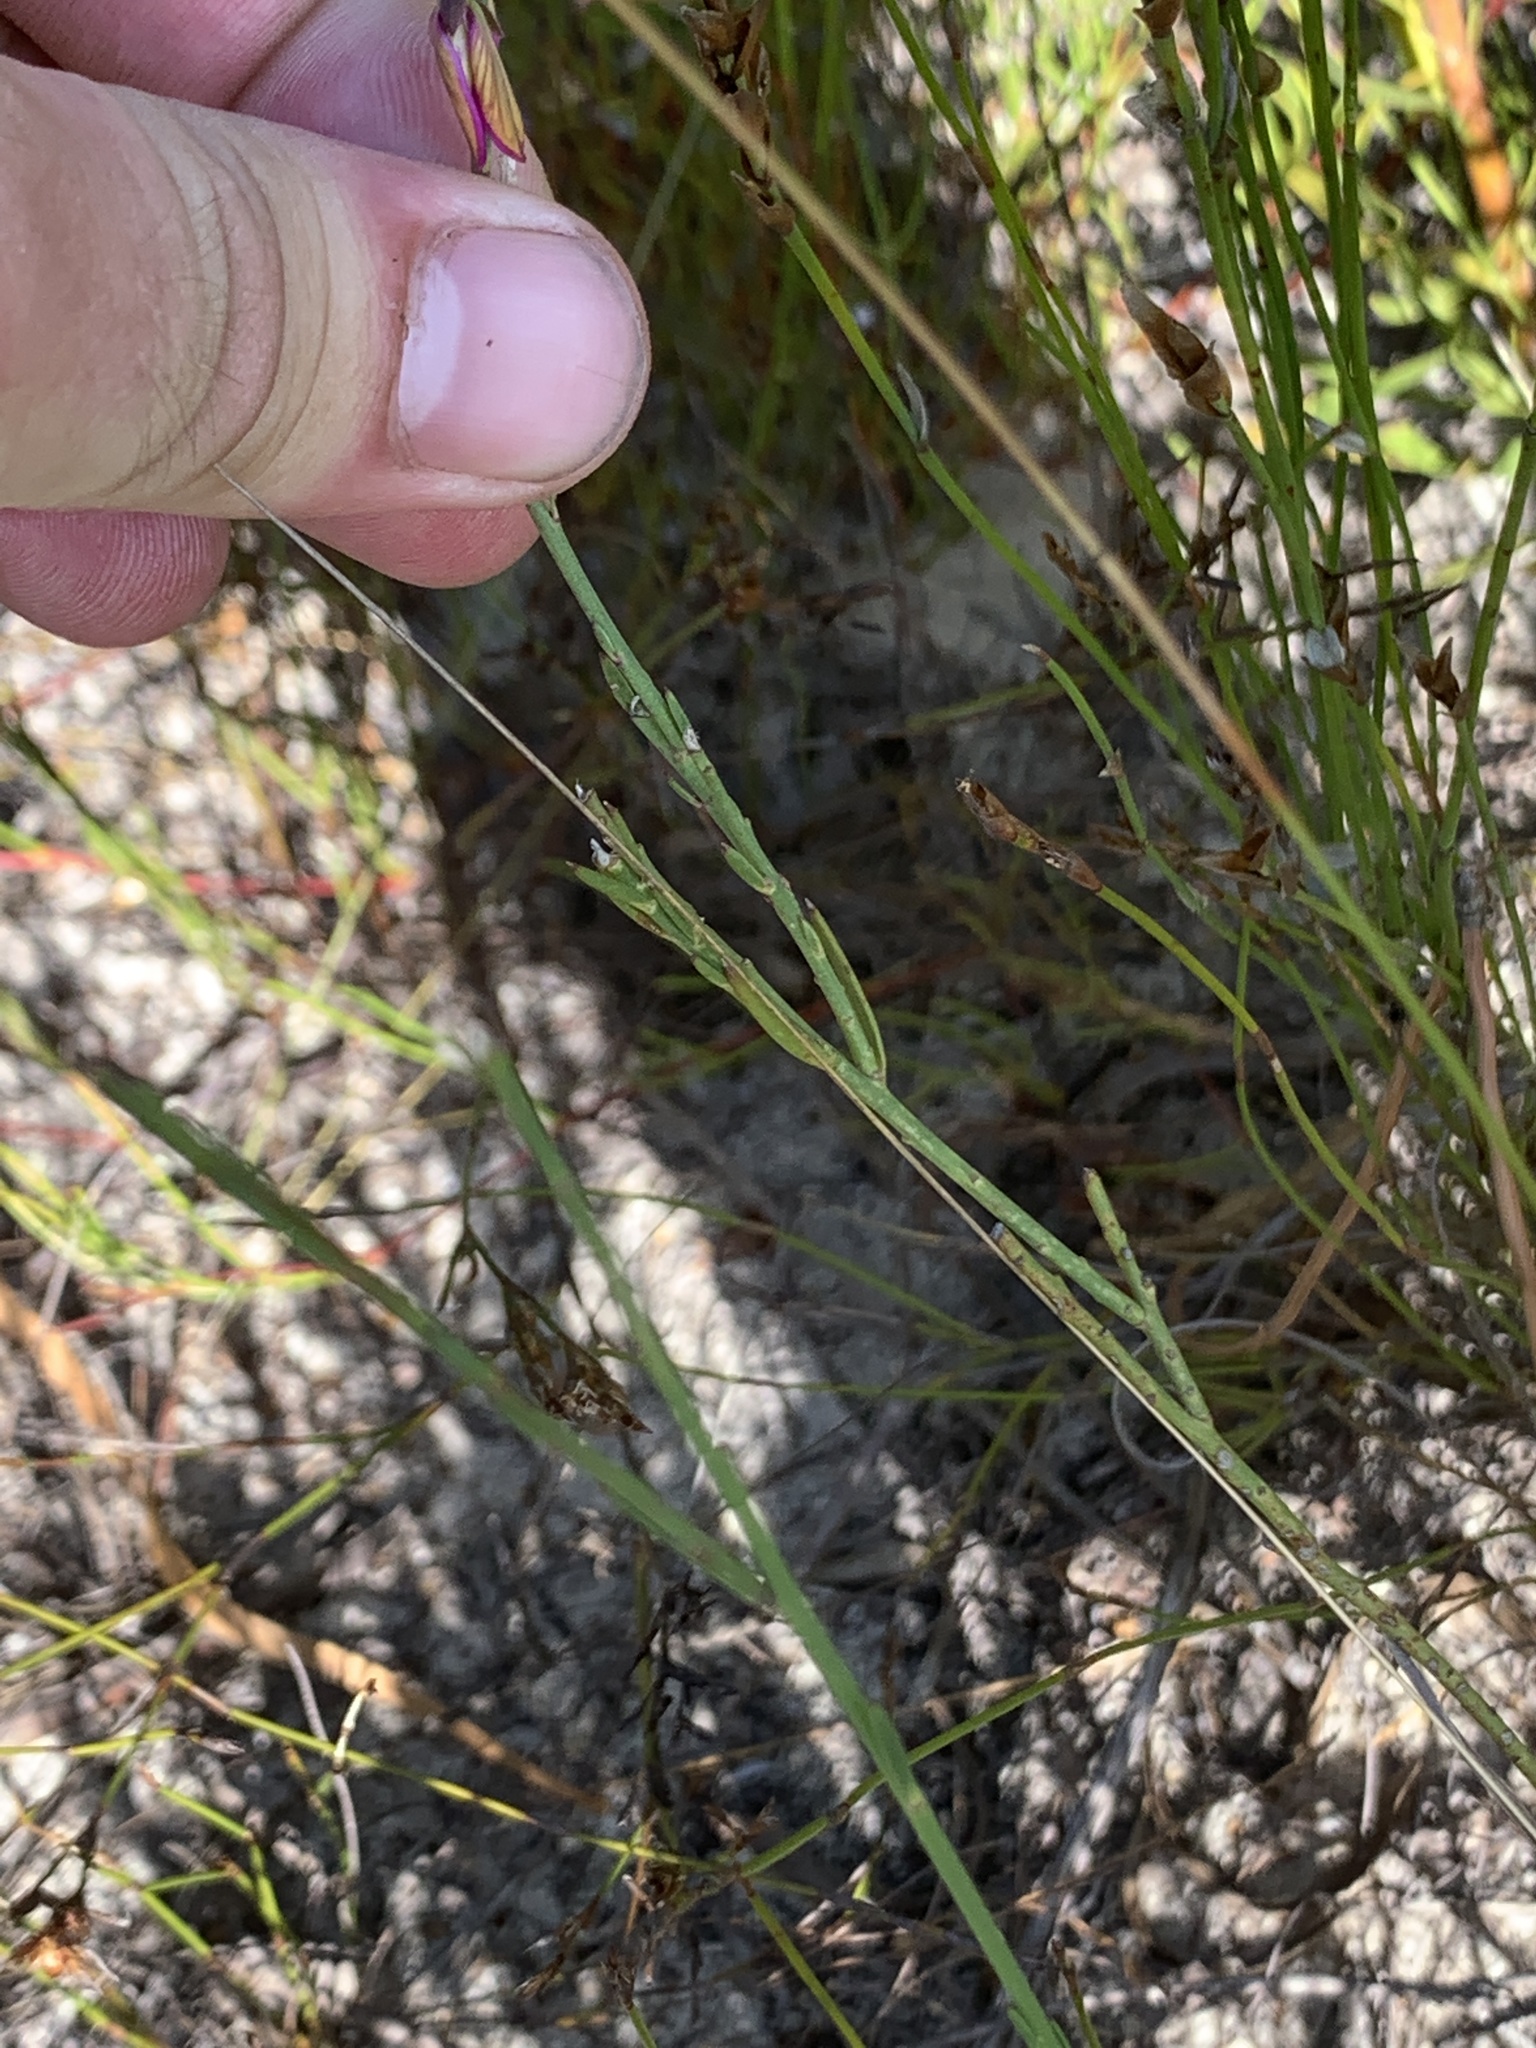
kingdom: Plantae
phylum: Tracheophyta
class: Magnoliopsida
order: Fabales
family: Polygalaceae
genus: Polygala
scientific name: Polygala garcini
